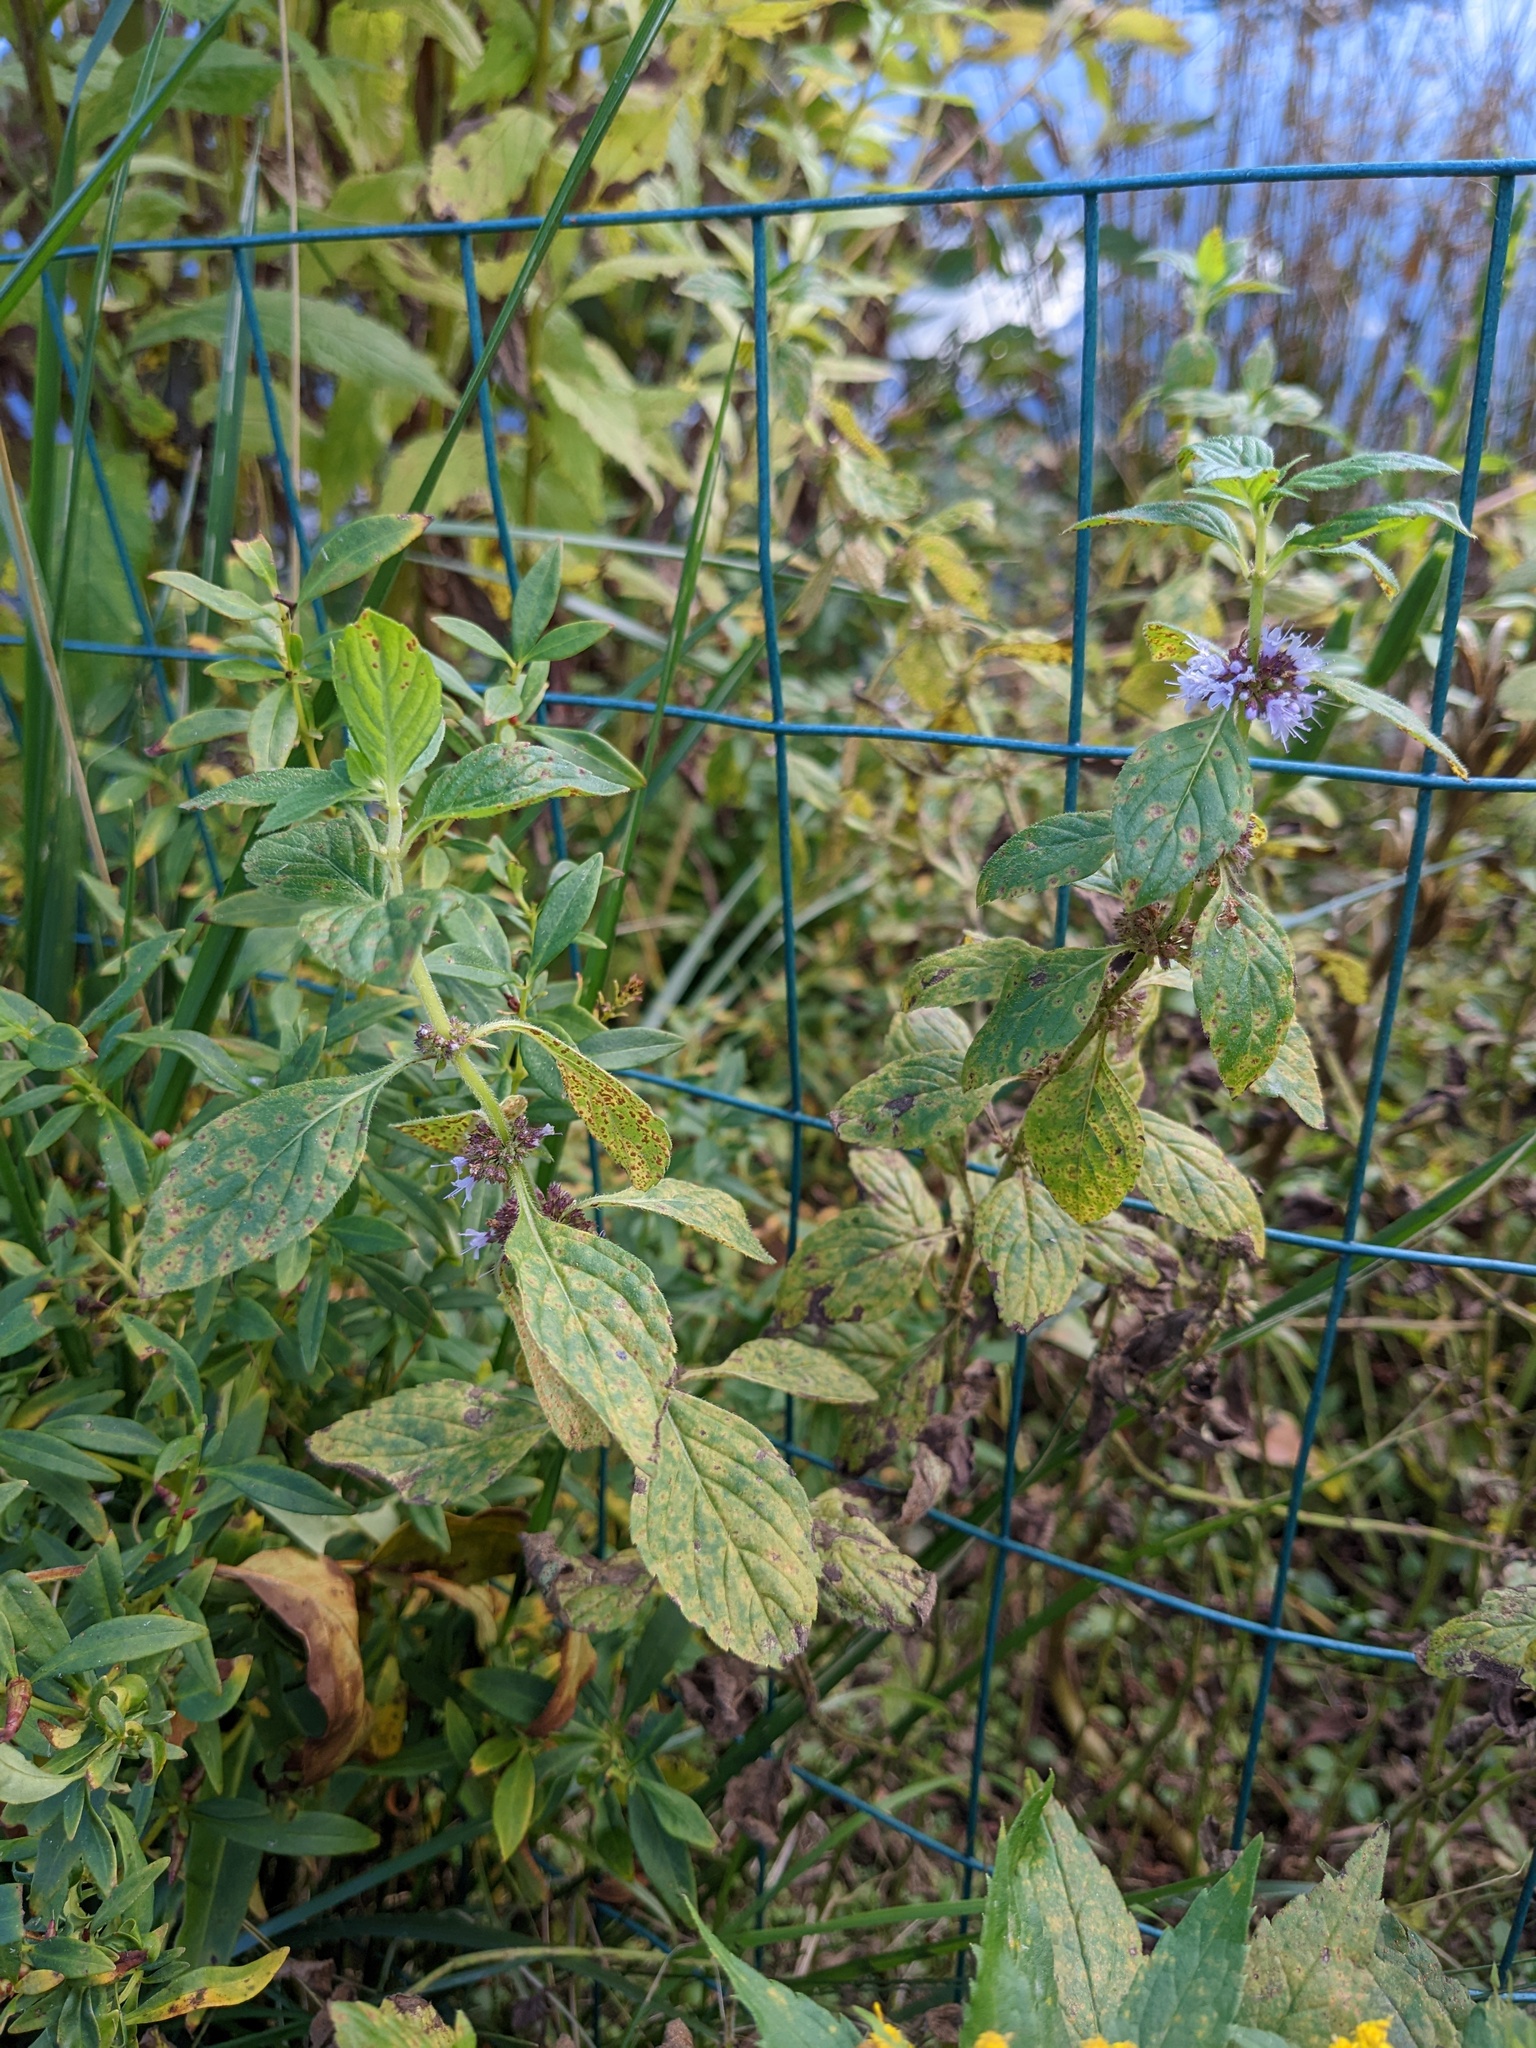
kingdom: Plantae
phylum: Tracheophyta
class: Magnoliopsida
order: Lamiales
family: Lamiaceae
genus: Mentha
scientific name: Mentha canadensis
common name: American corn mint
